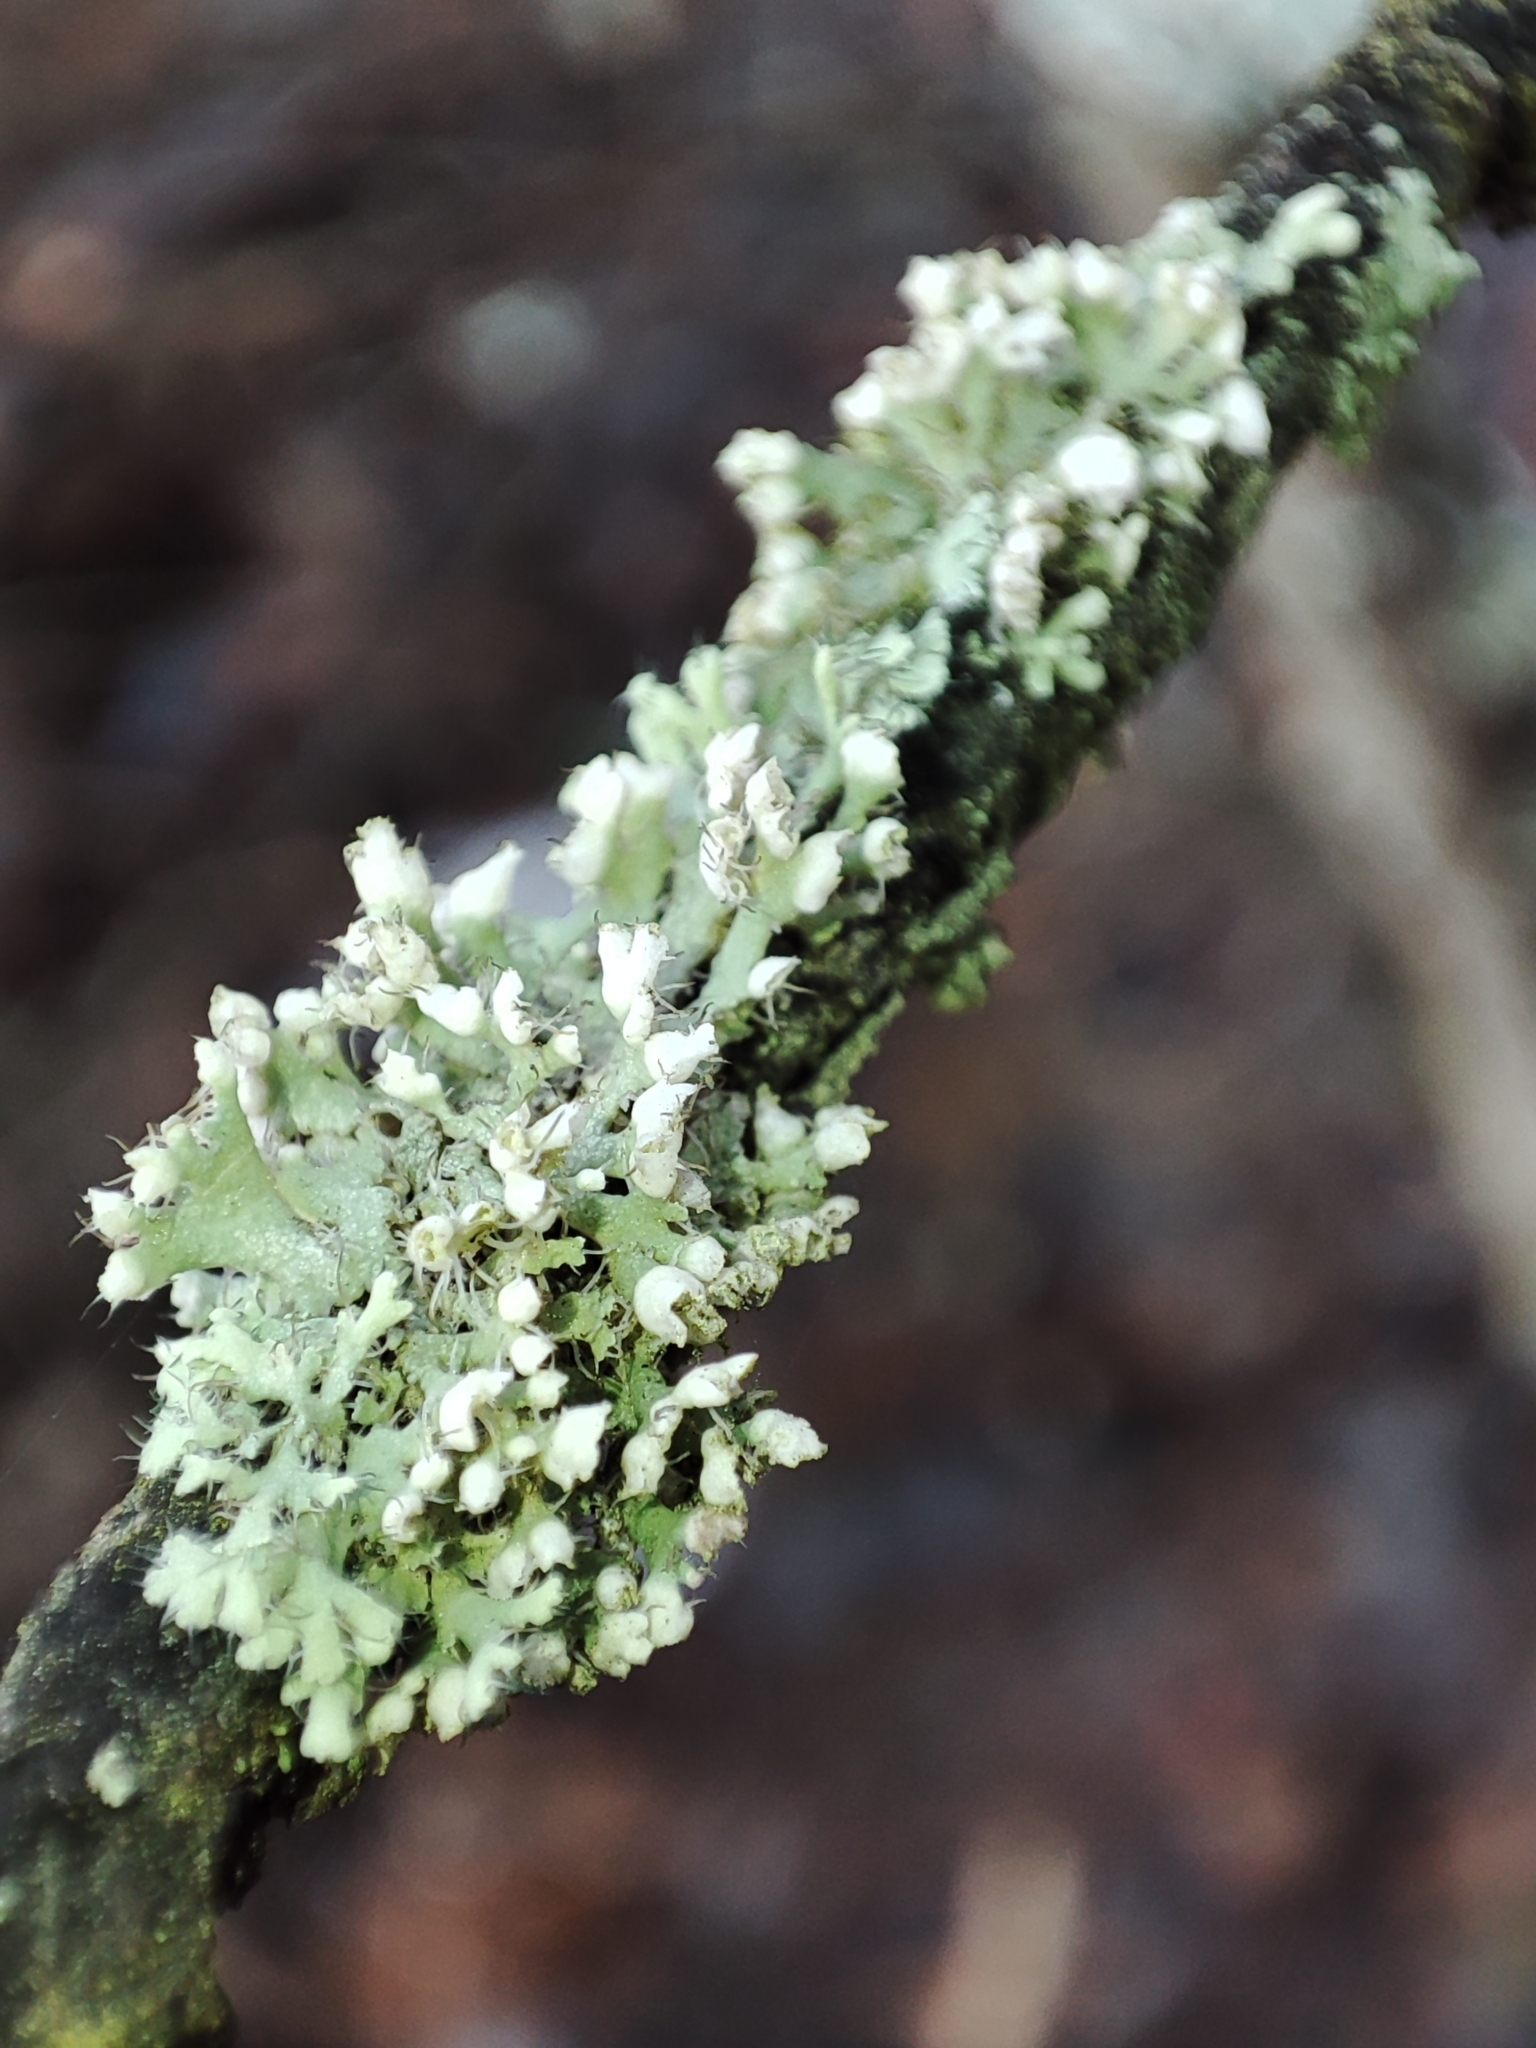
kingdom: Fungi
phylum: Ascomycota
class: Lecanoromycetes
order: Caliciales
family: Physciaceae
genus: Physcia
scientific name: Physcia adscendens
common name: Hooded rosette lichen
